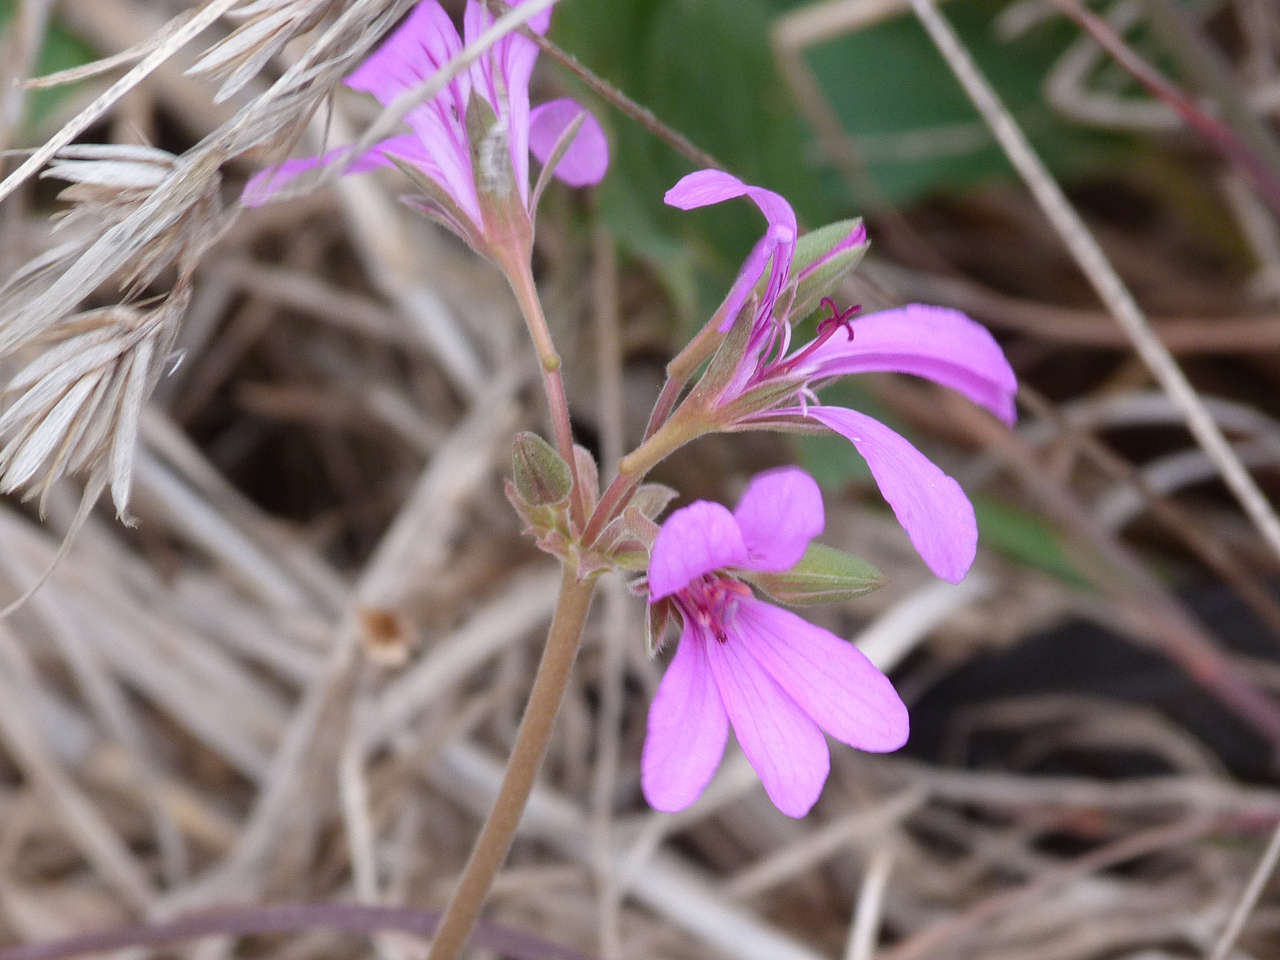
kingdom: Plantae
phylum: Tracheophyta
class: Magnoliopsida
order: Geraniales
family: Geraniaceae
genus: Pelargonium
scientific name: Pelargonium rodneyanum
